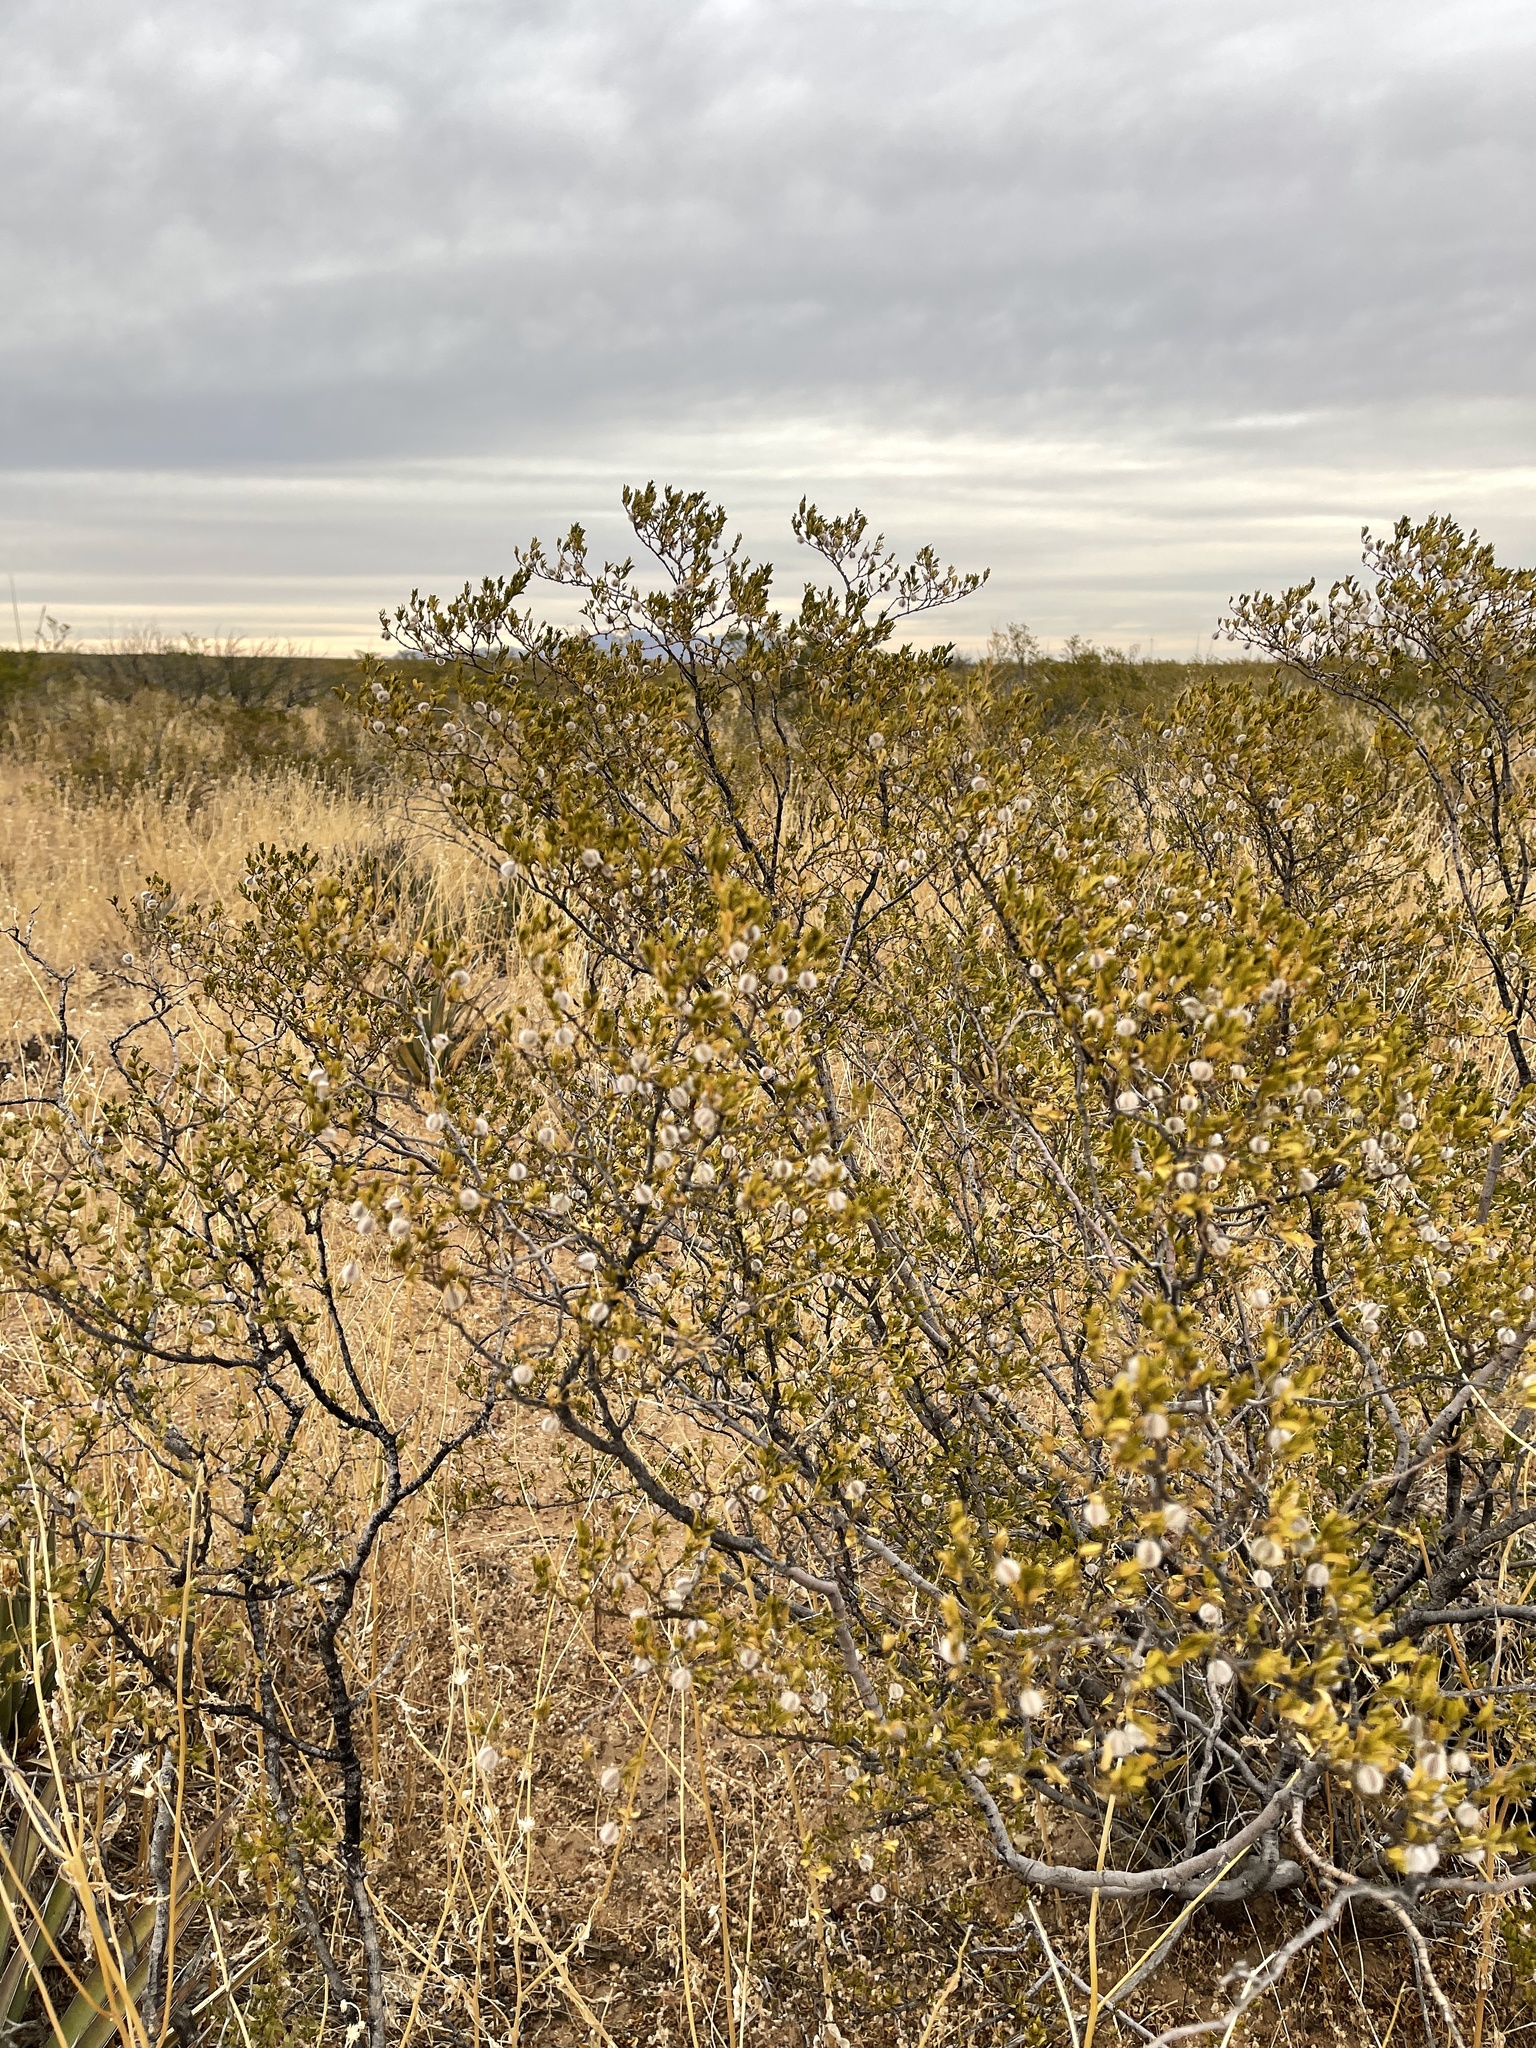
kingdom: Plantae
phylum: Tracheophyta
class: Magnoliopsida
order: Zygophyllales
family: Zygophyllaceae
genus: Larrea
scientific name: Larrea tridentata
